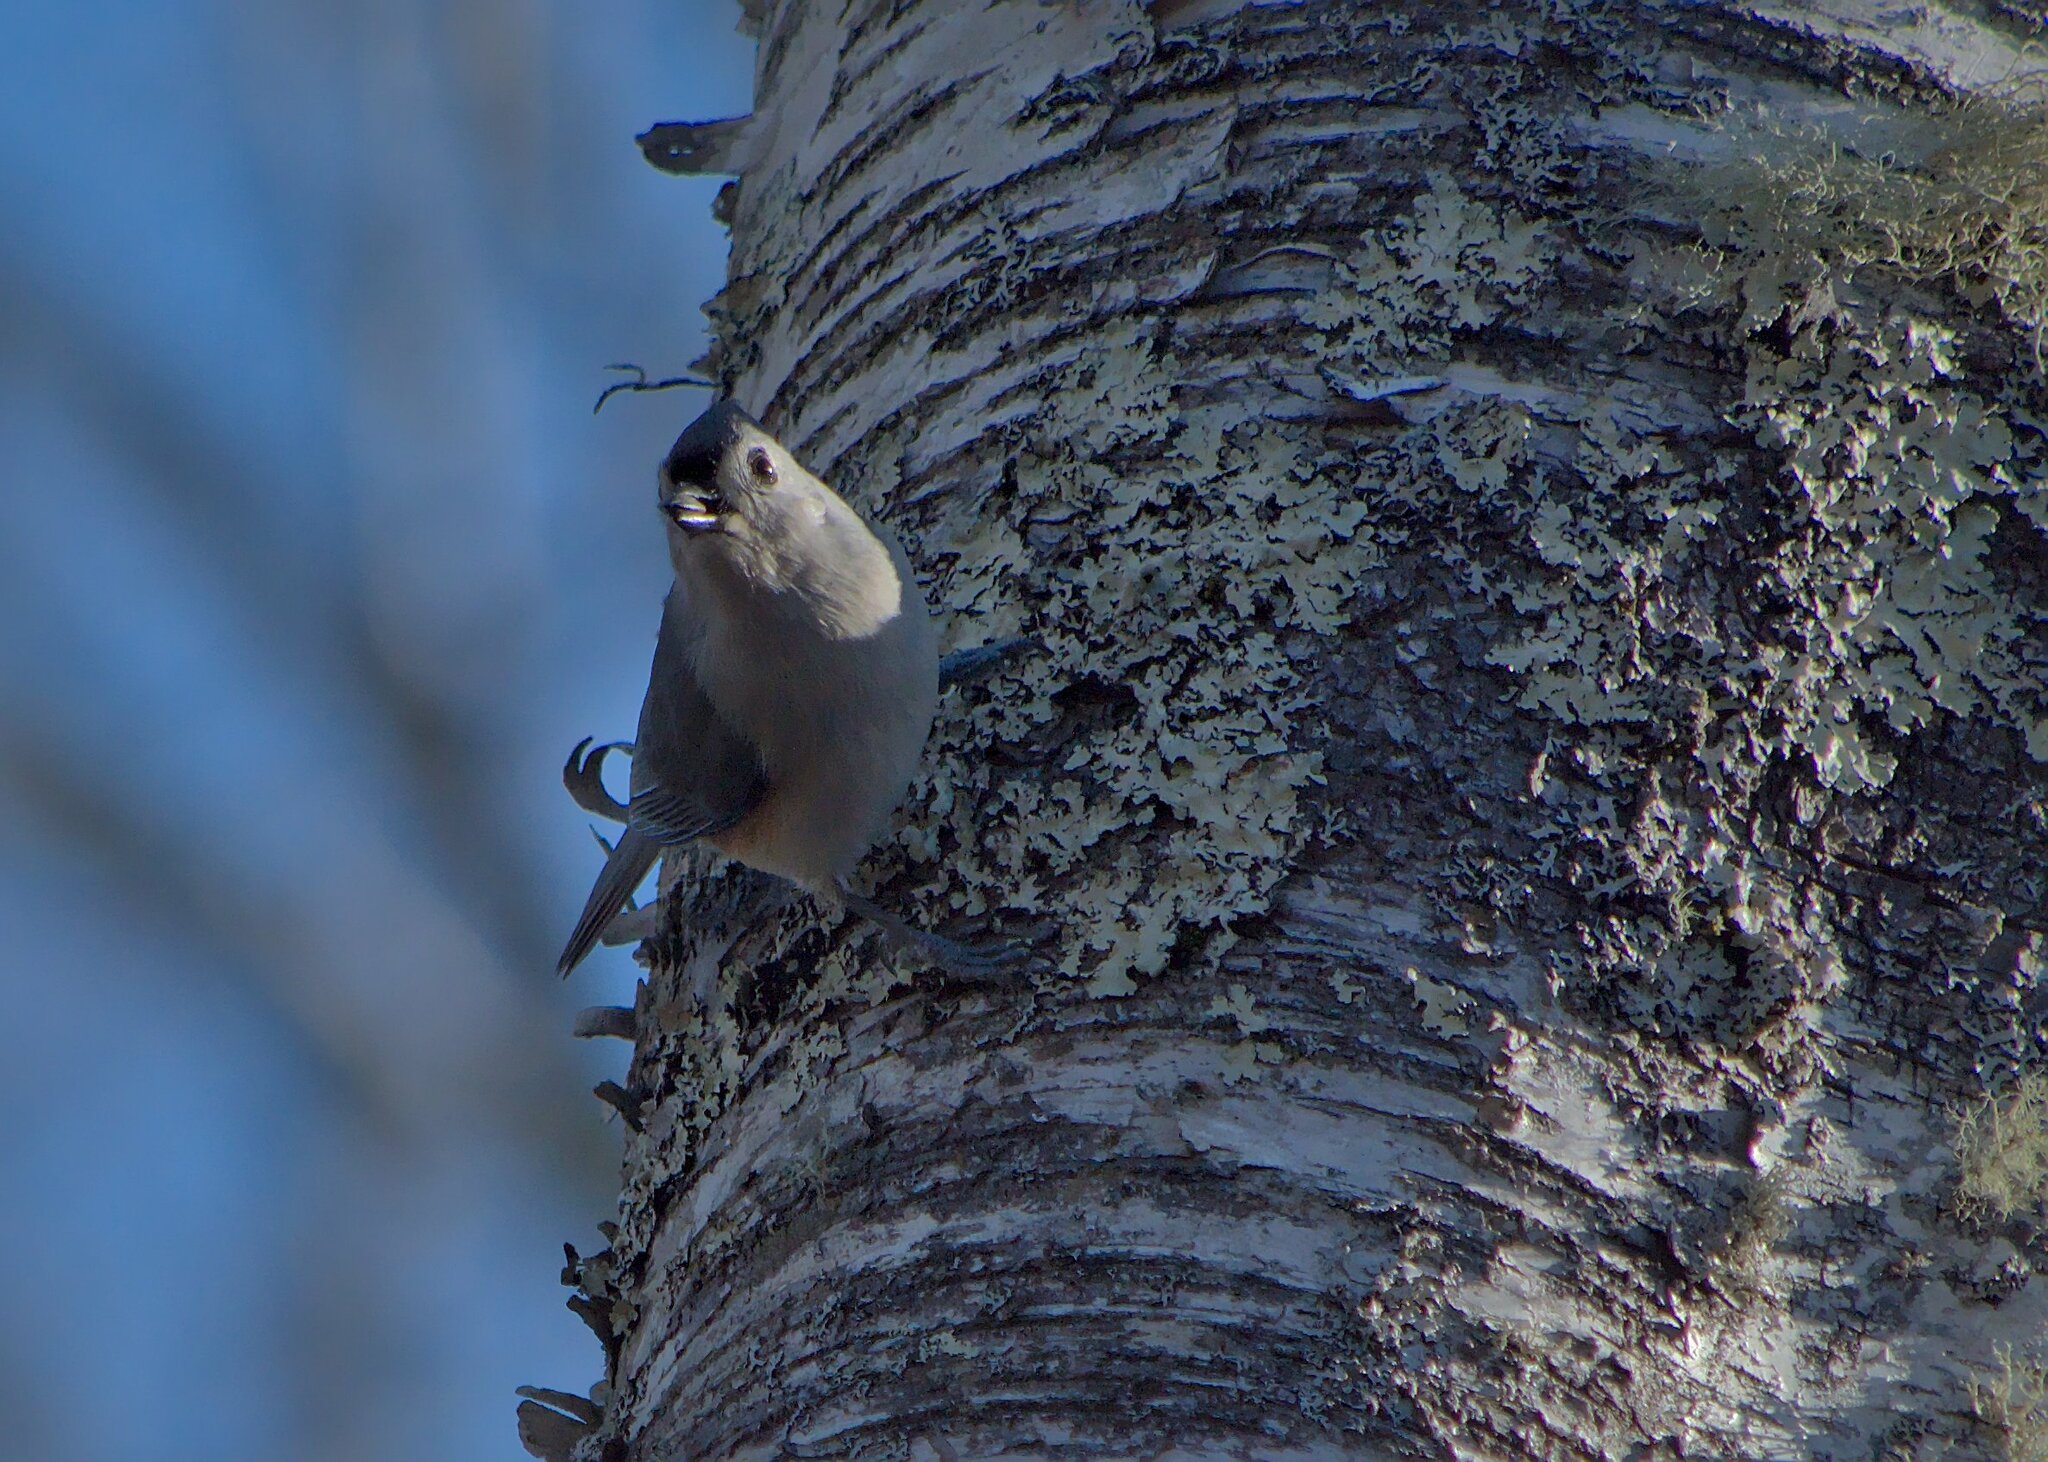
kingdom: Animalia
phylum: Chordata
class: Aves
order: Passeriformes
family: Paridae
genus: Baeolophus
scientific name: Baeolophus bicolor
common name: Tufted titmouse
